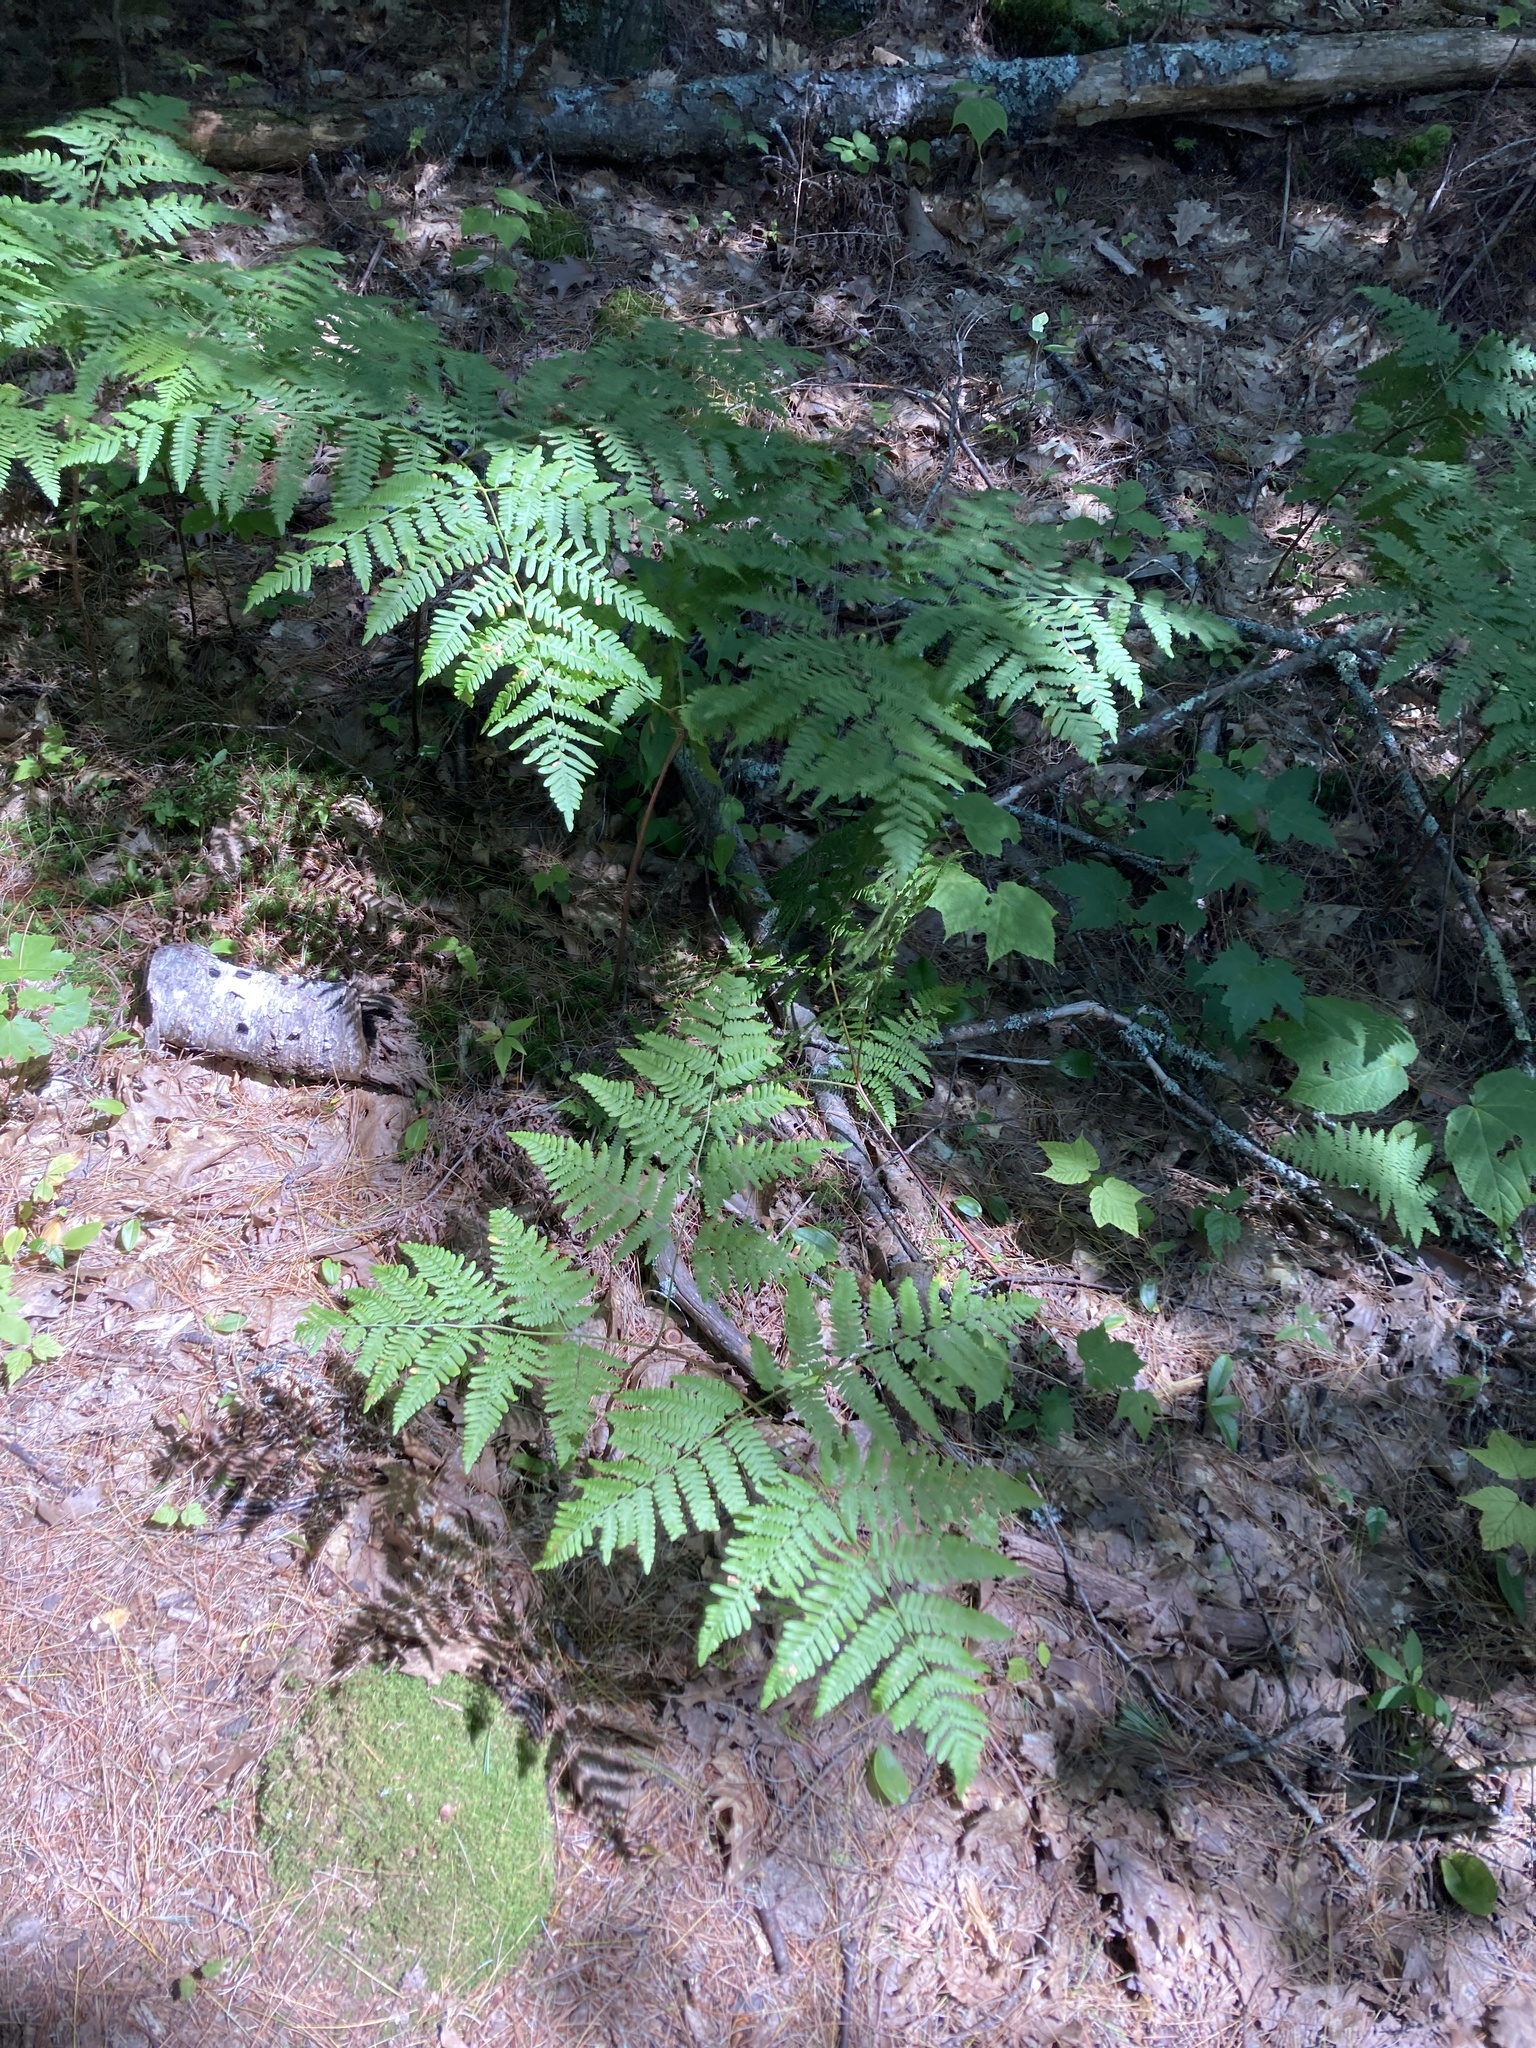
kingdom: Plantae
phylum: Tracheophyta
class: Polypodiopsida
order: Polypodiales
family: Dennstaedtiaceae
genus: Pteridium
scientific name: Pteridium aquilinum
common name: Bracken
